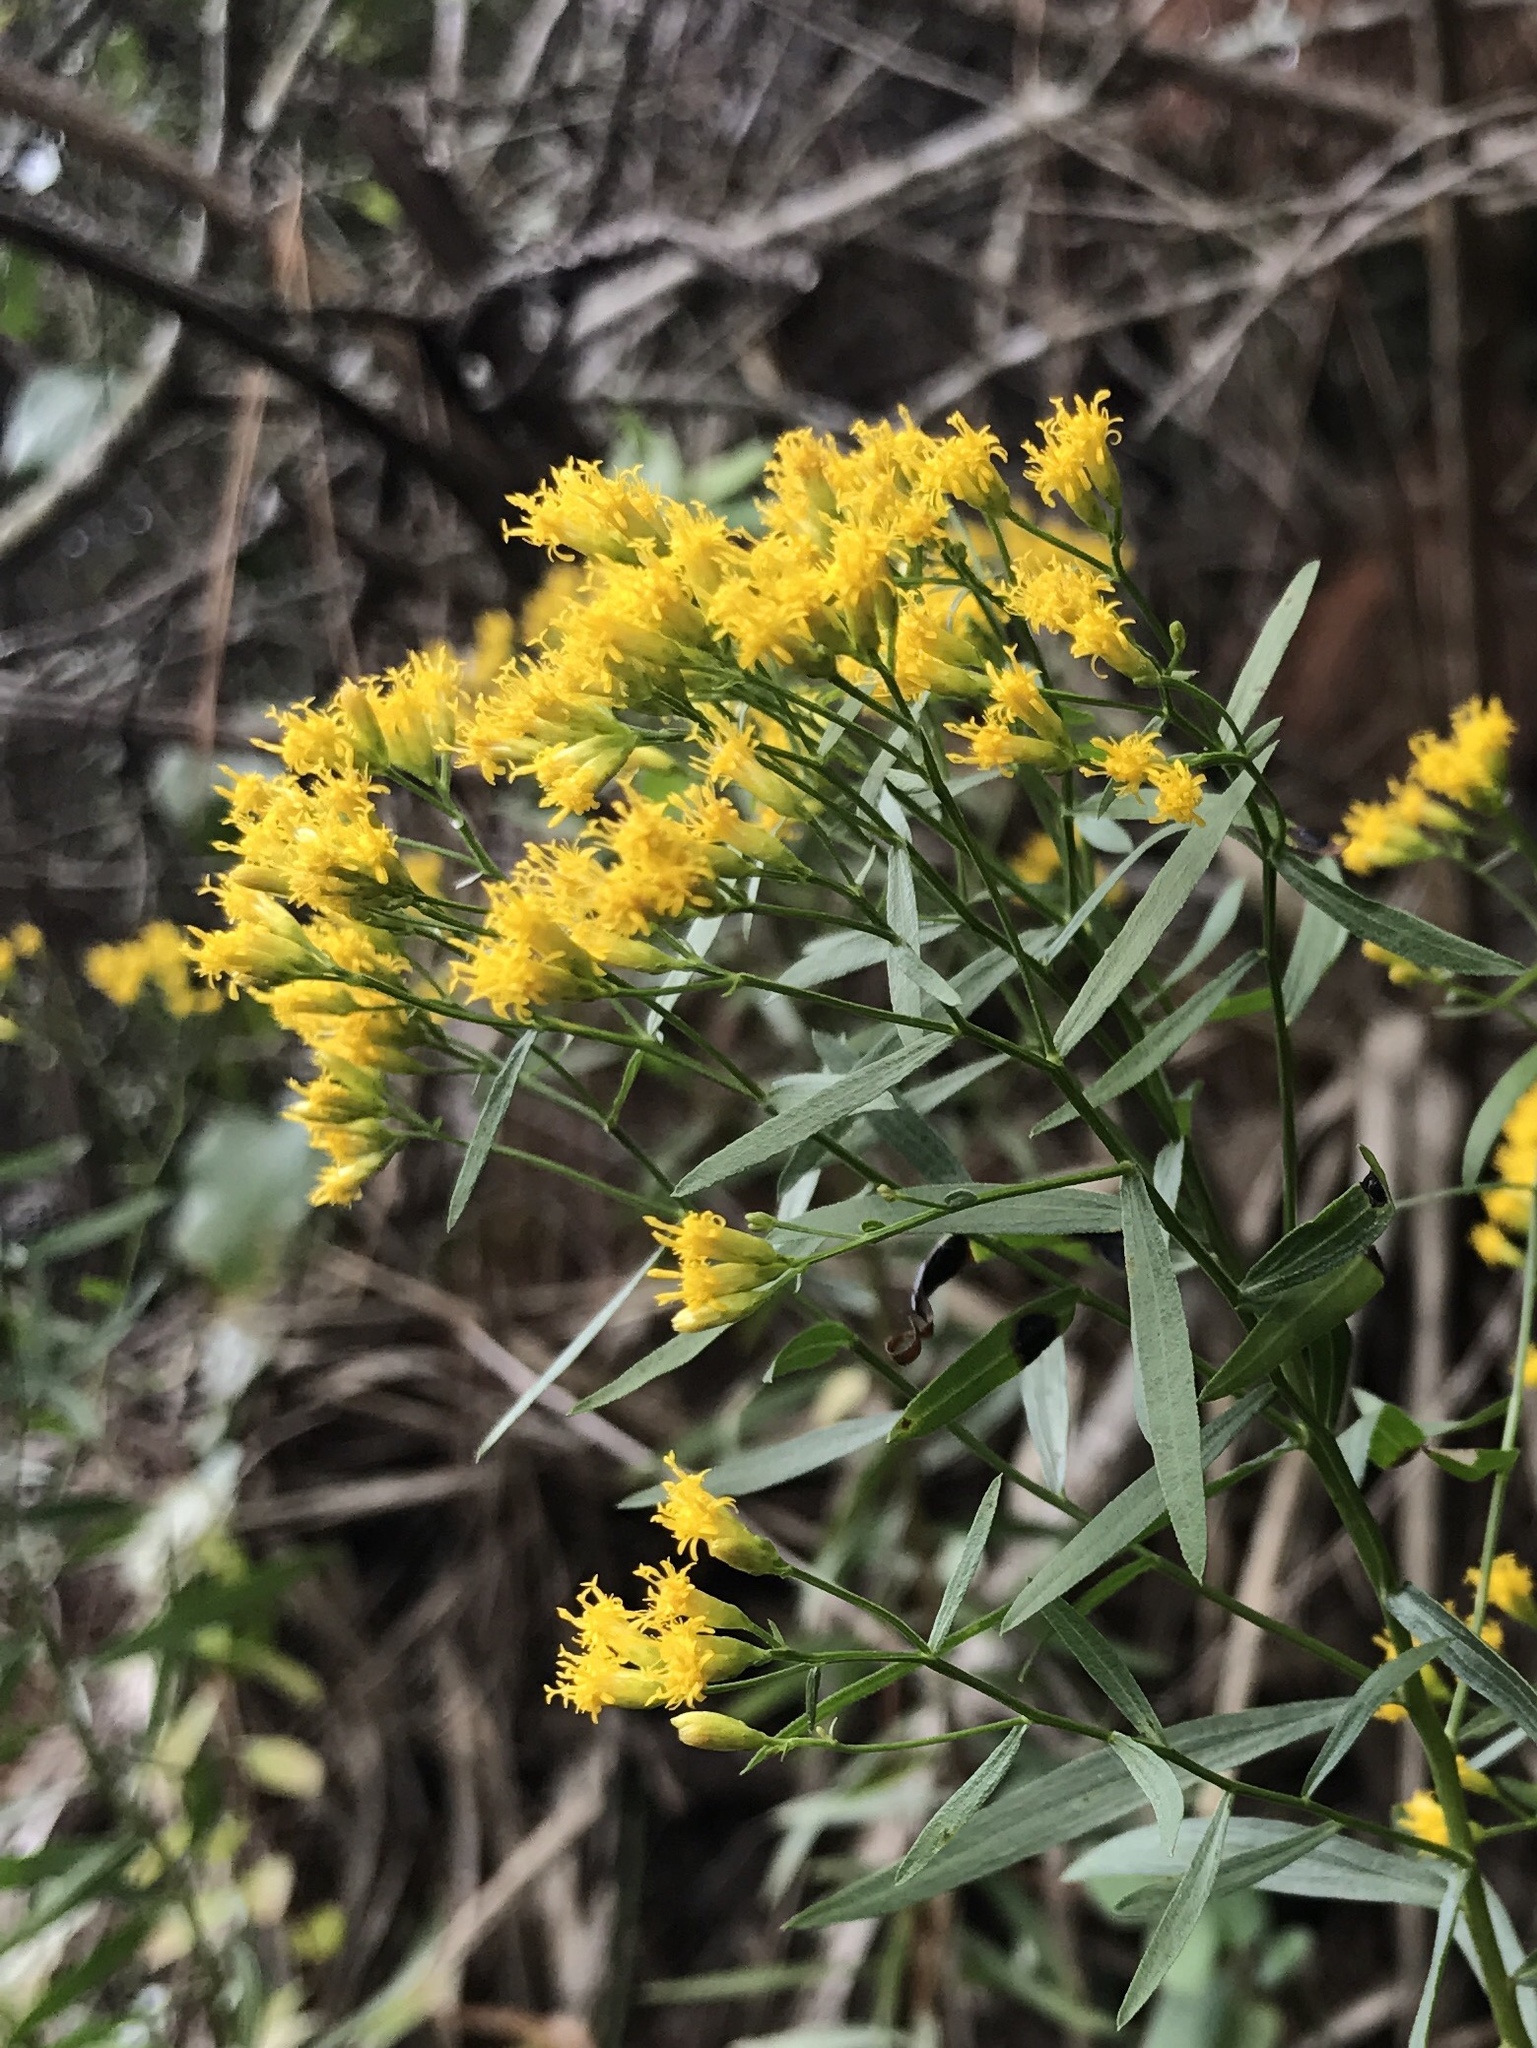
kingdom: Plantae
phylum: Tracheophyta
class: Magnoliopsida
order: Asterales
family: Asteraceae
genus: Euthamia
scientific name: Euthamia leptocephala
